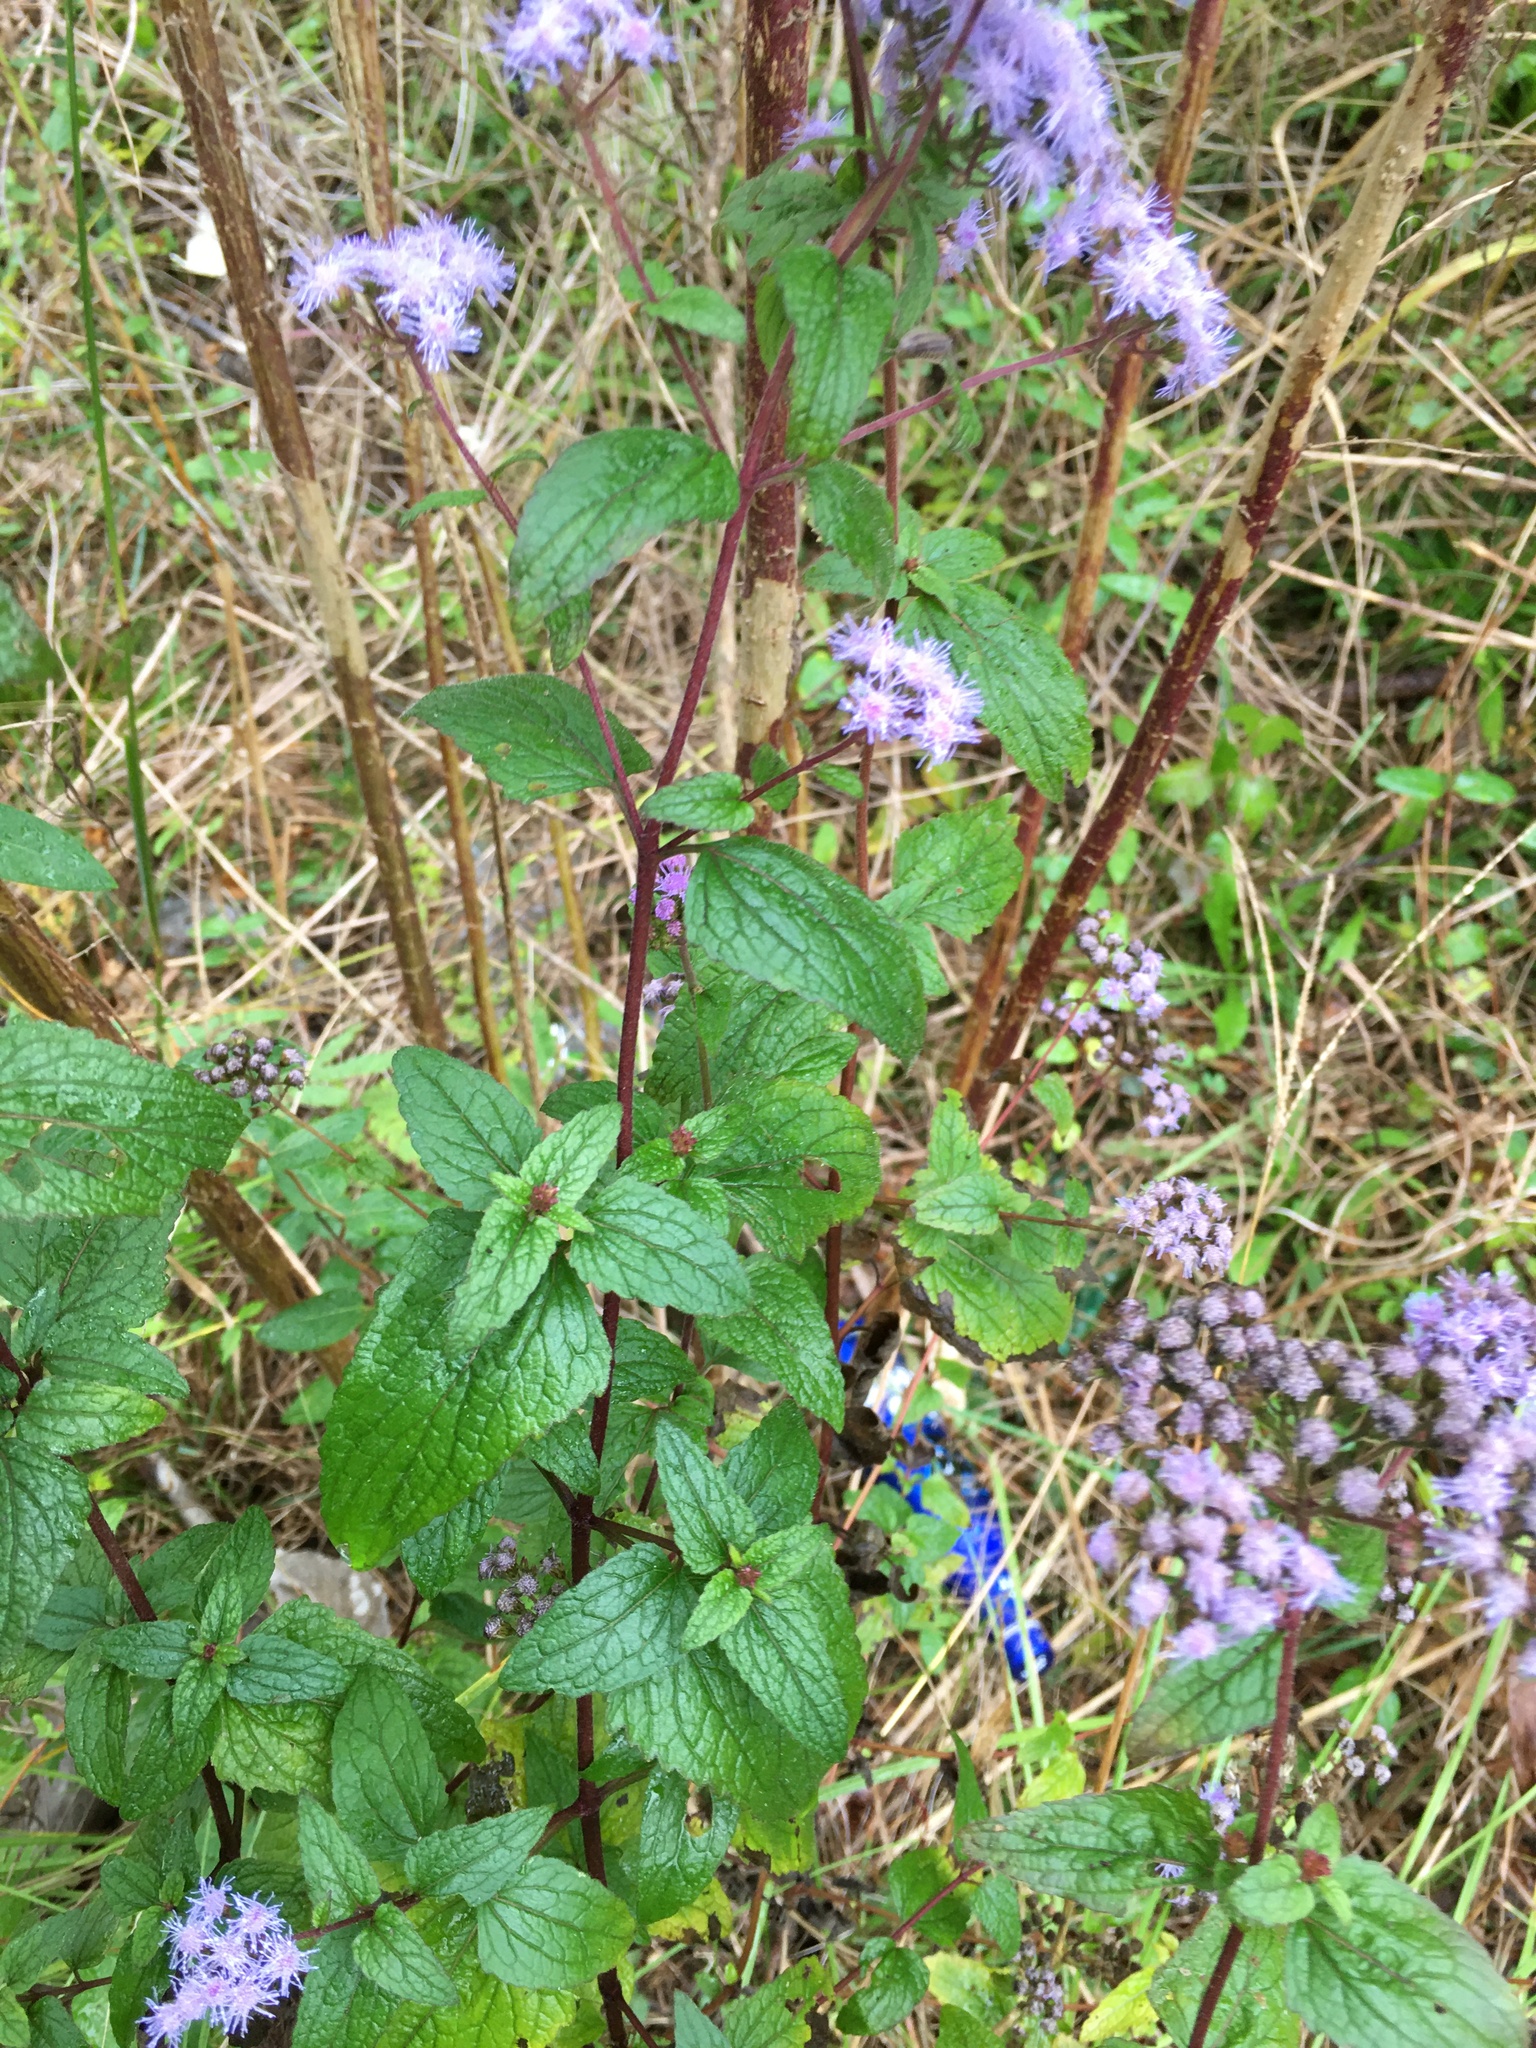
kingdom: Plantae
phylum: Tracheophyta
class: Magnoliopsida
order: Asterales
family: Asteraceae
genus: Conoclinium
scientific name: Conoclinium coelestinum
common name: Blue mistflower
